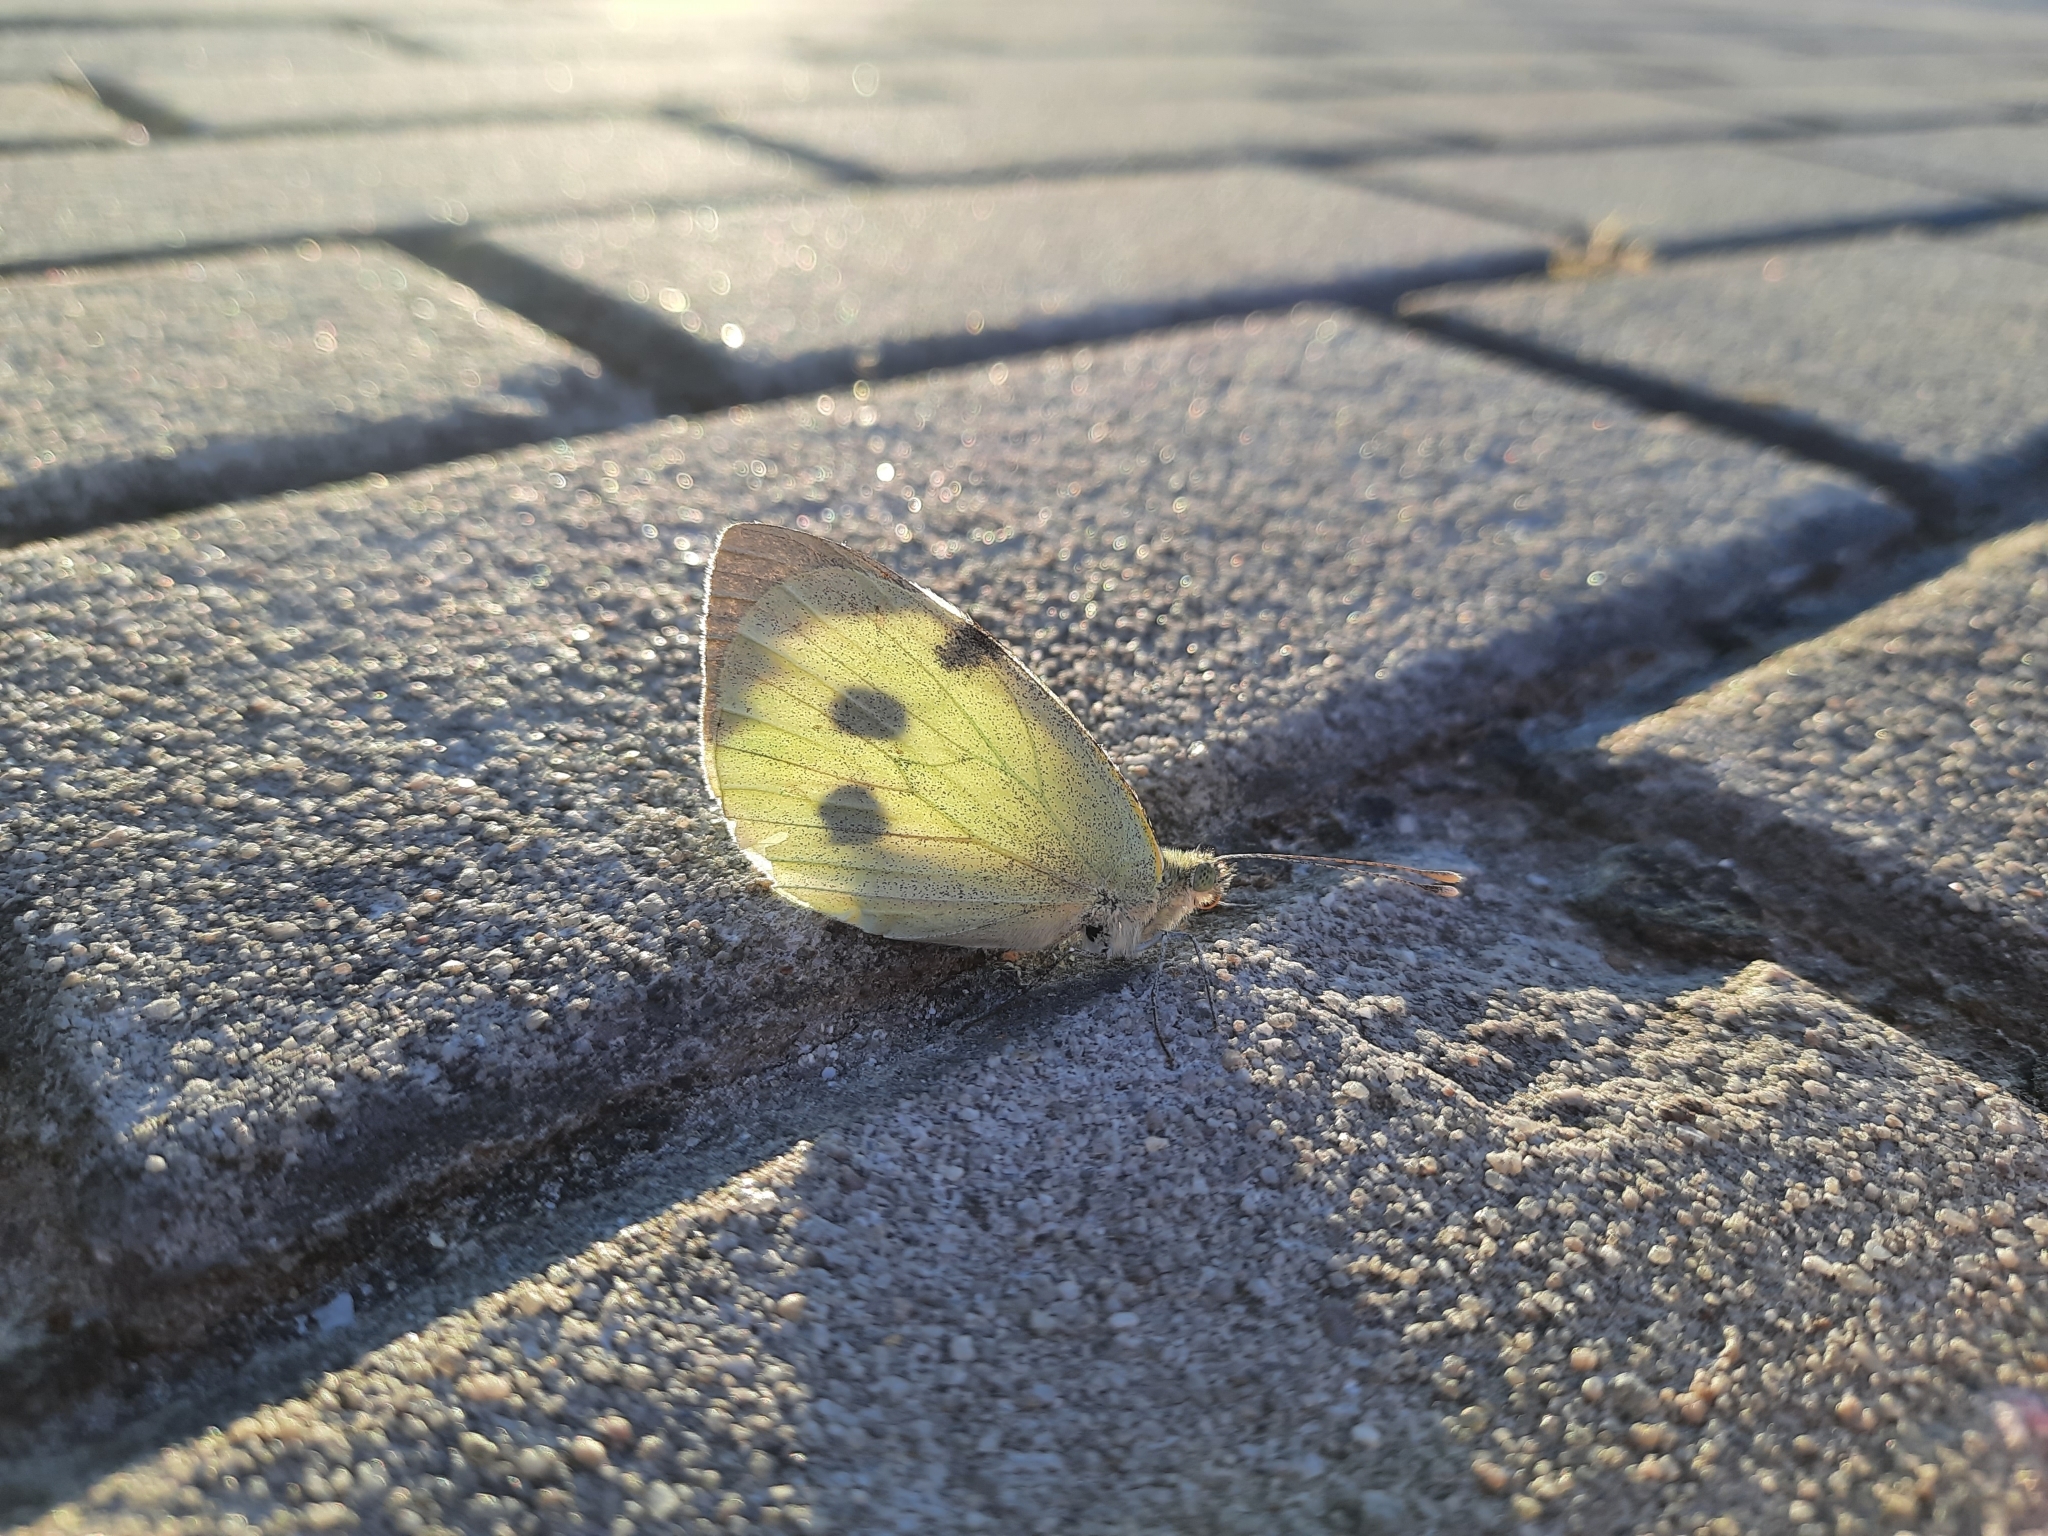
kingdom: Animalia
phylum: Arthropoda
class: Insecta
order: Lepidoptera
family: Pieridae
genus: Pieris
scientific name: Pieris brassicae
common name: Large white
